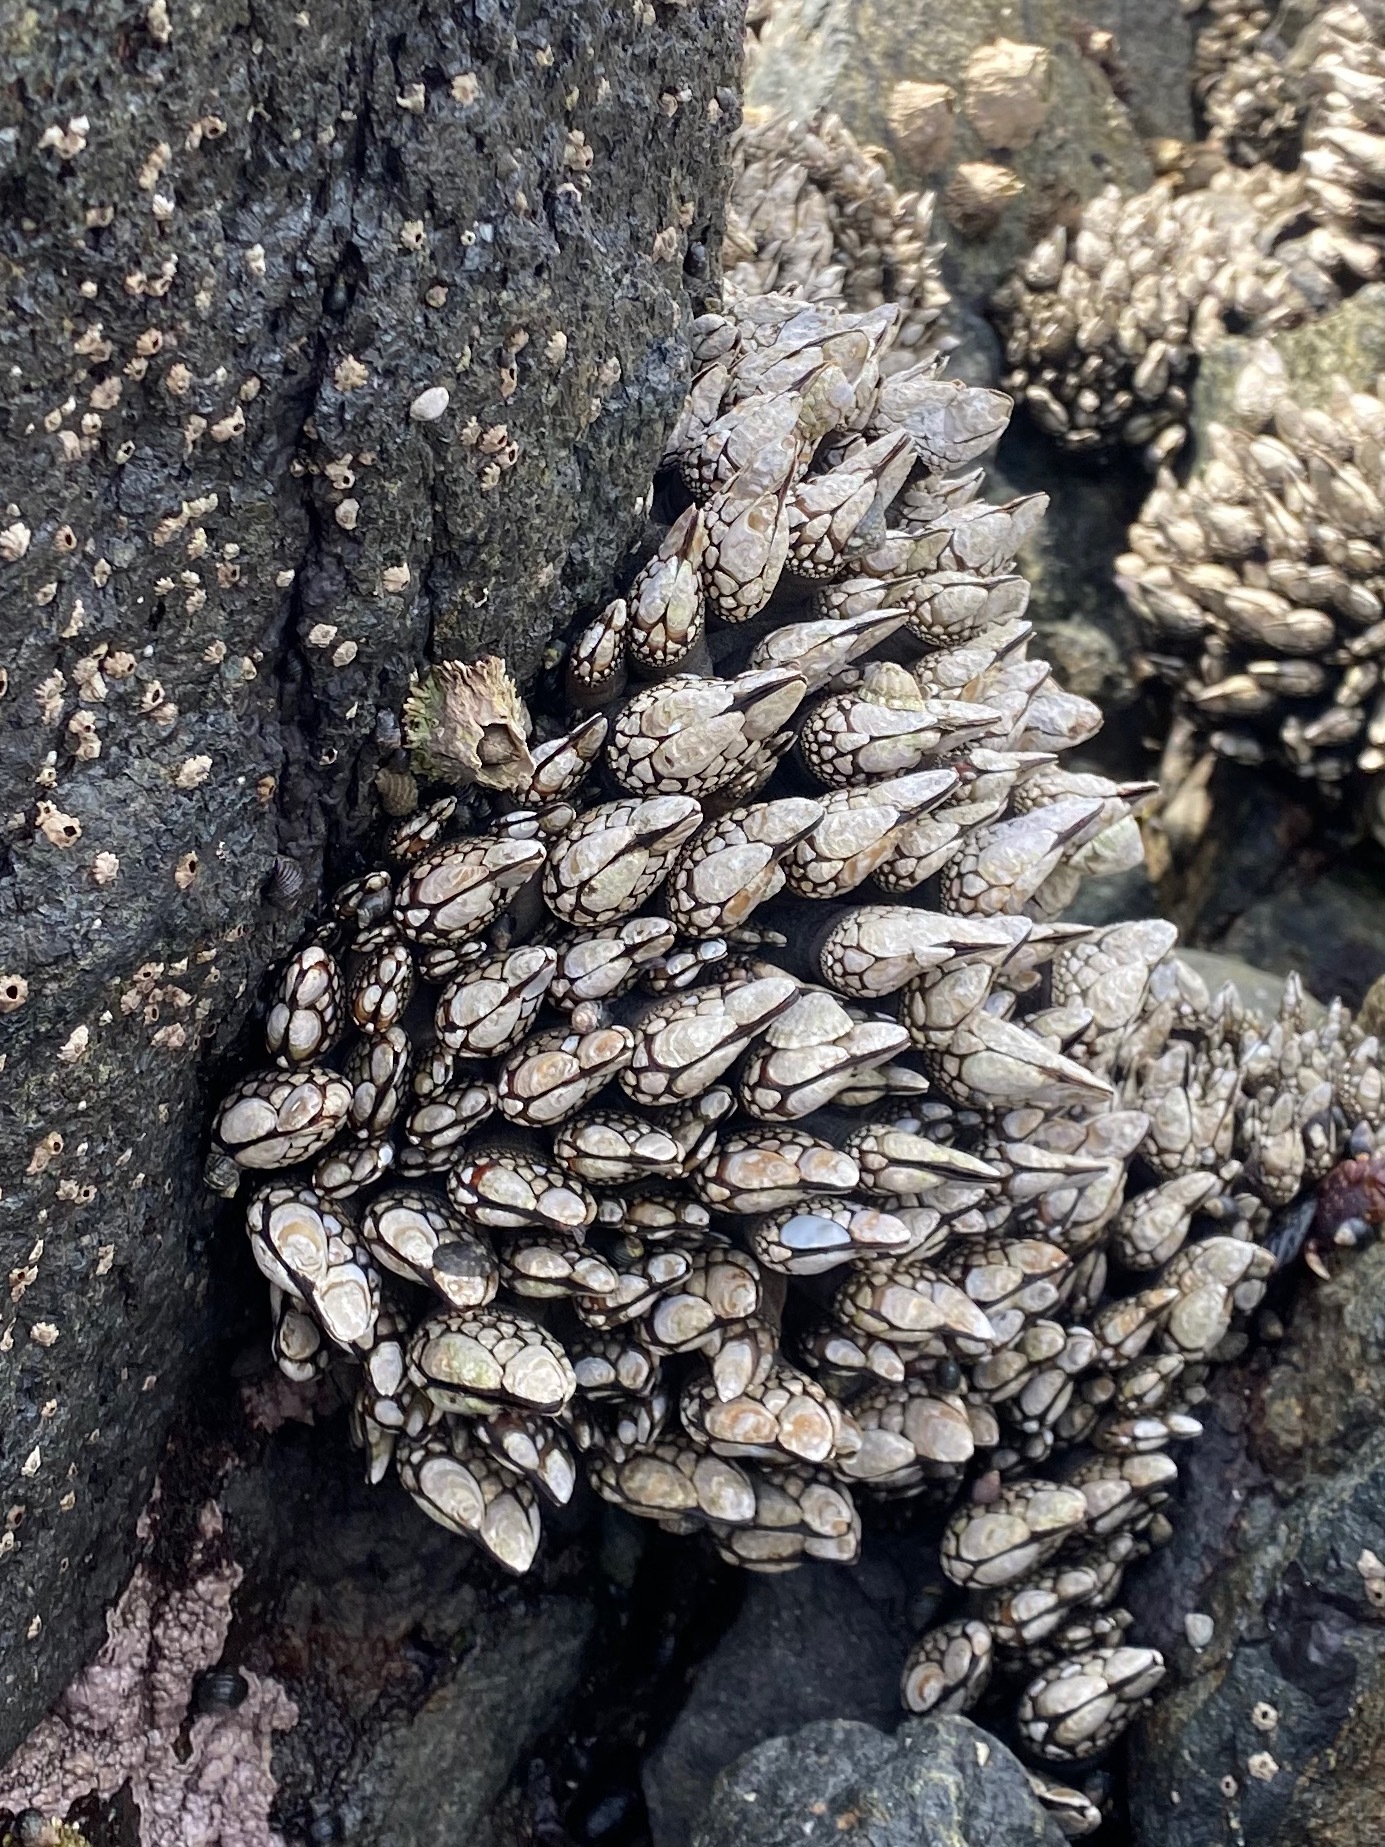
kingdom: Animalia
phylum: Arthropoda
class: Maxillopoda
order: Pedunculata
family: Pollicipedidae
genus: Pollicipes
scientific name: Pollicipes polymerus
